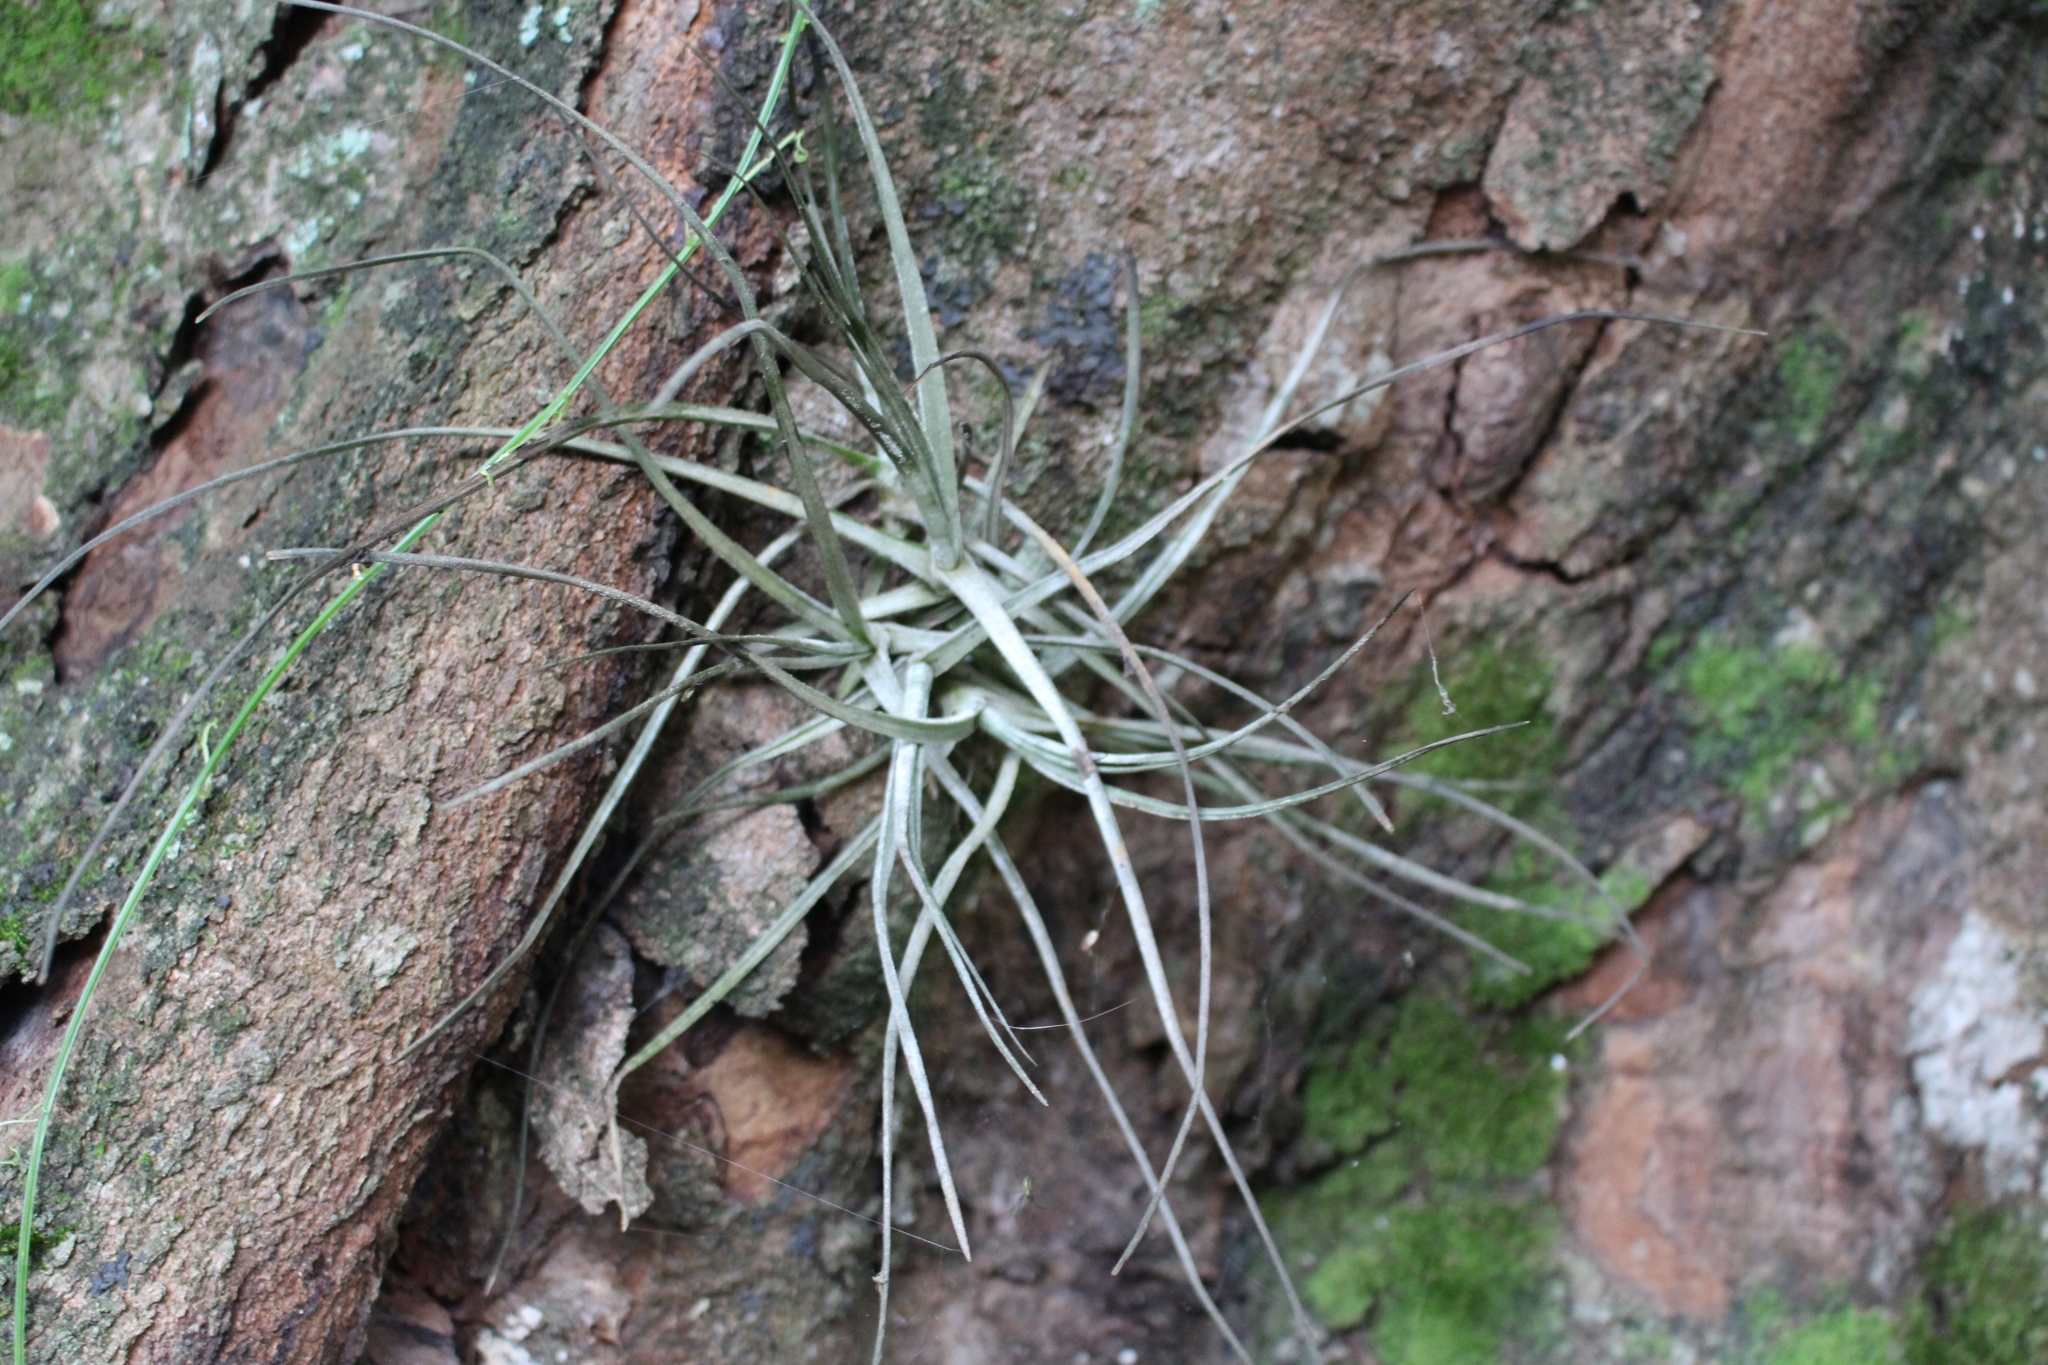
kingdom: Plantae
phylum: Tracheophyta
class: Liliopsida
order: Poales
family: Bromeliaceae
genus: Tillandsia
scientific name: Tillandsia schiedeana
